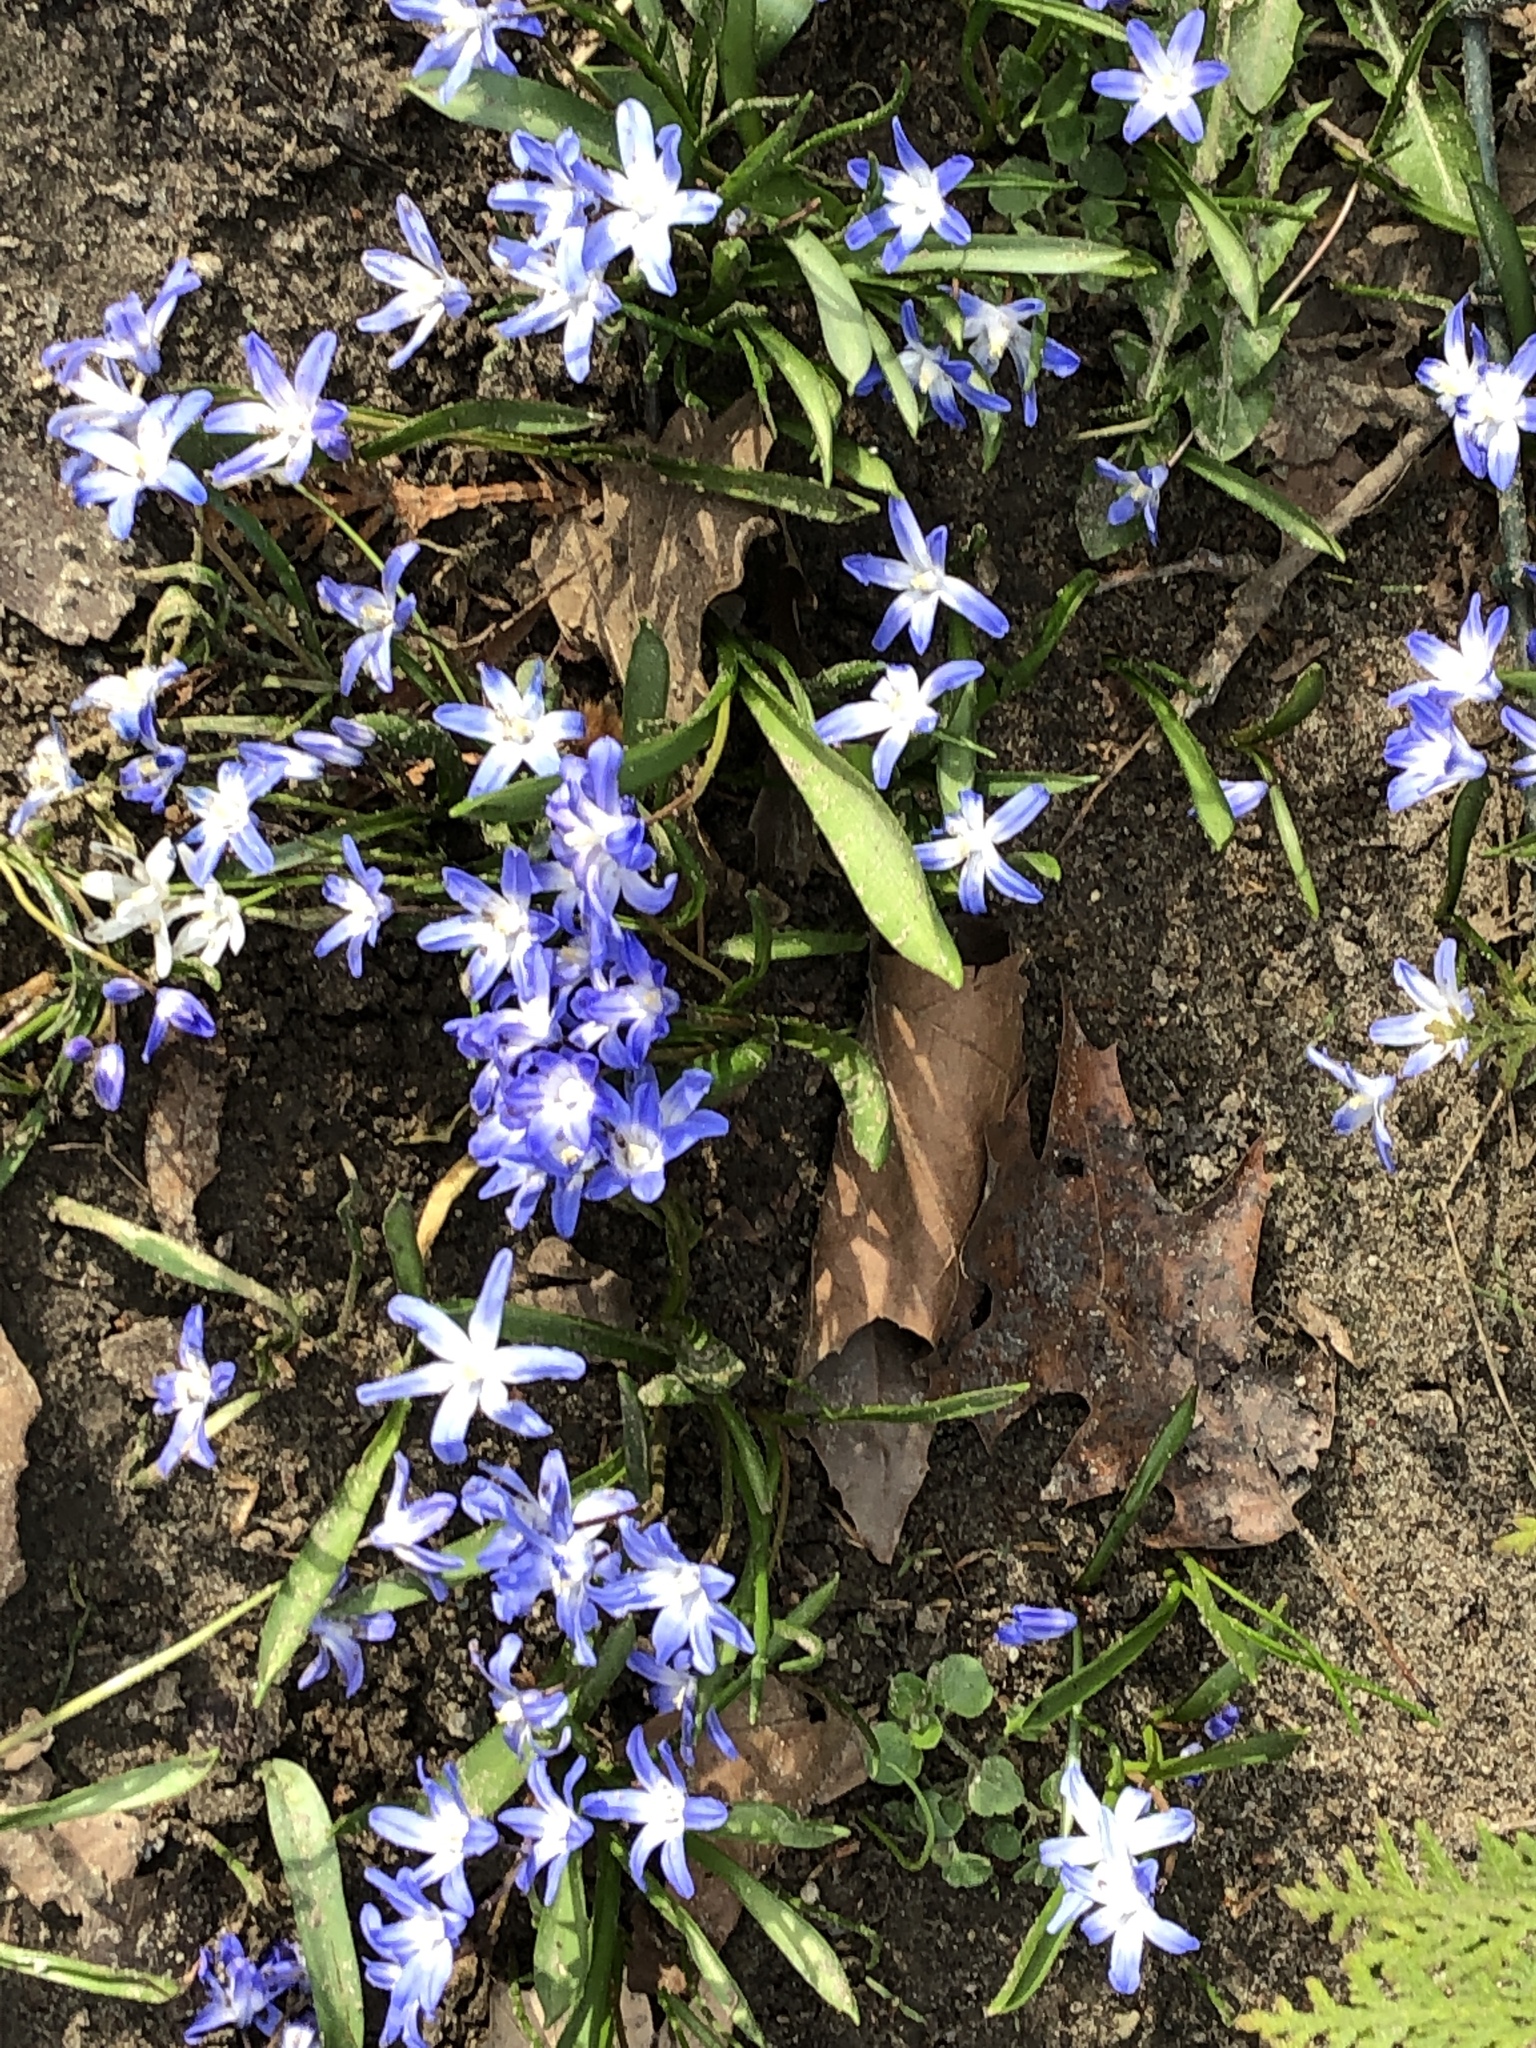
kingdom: Plantae
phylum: Tracheophyta
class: Liliopsida
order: Asparagales
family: Asparagaceae
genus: Scilla
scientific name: Scilla forbesii
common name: Glory-of-the-snow
